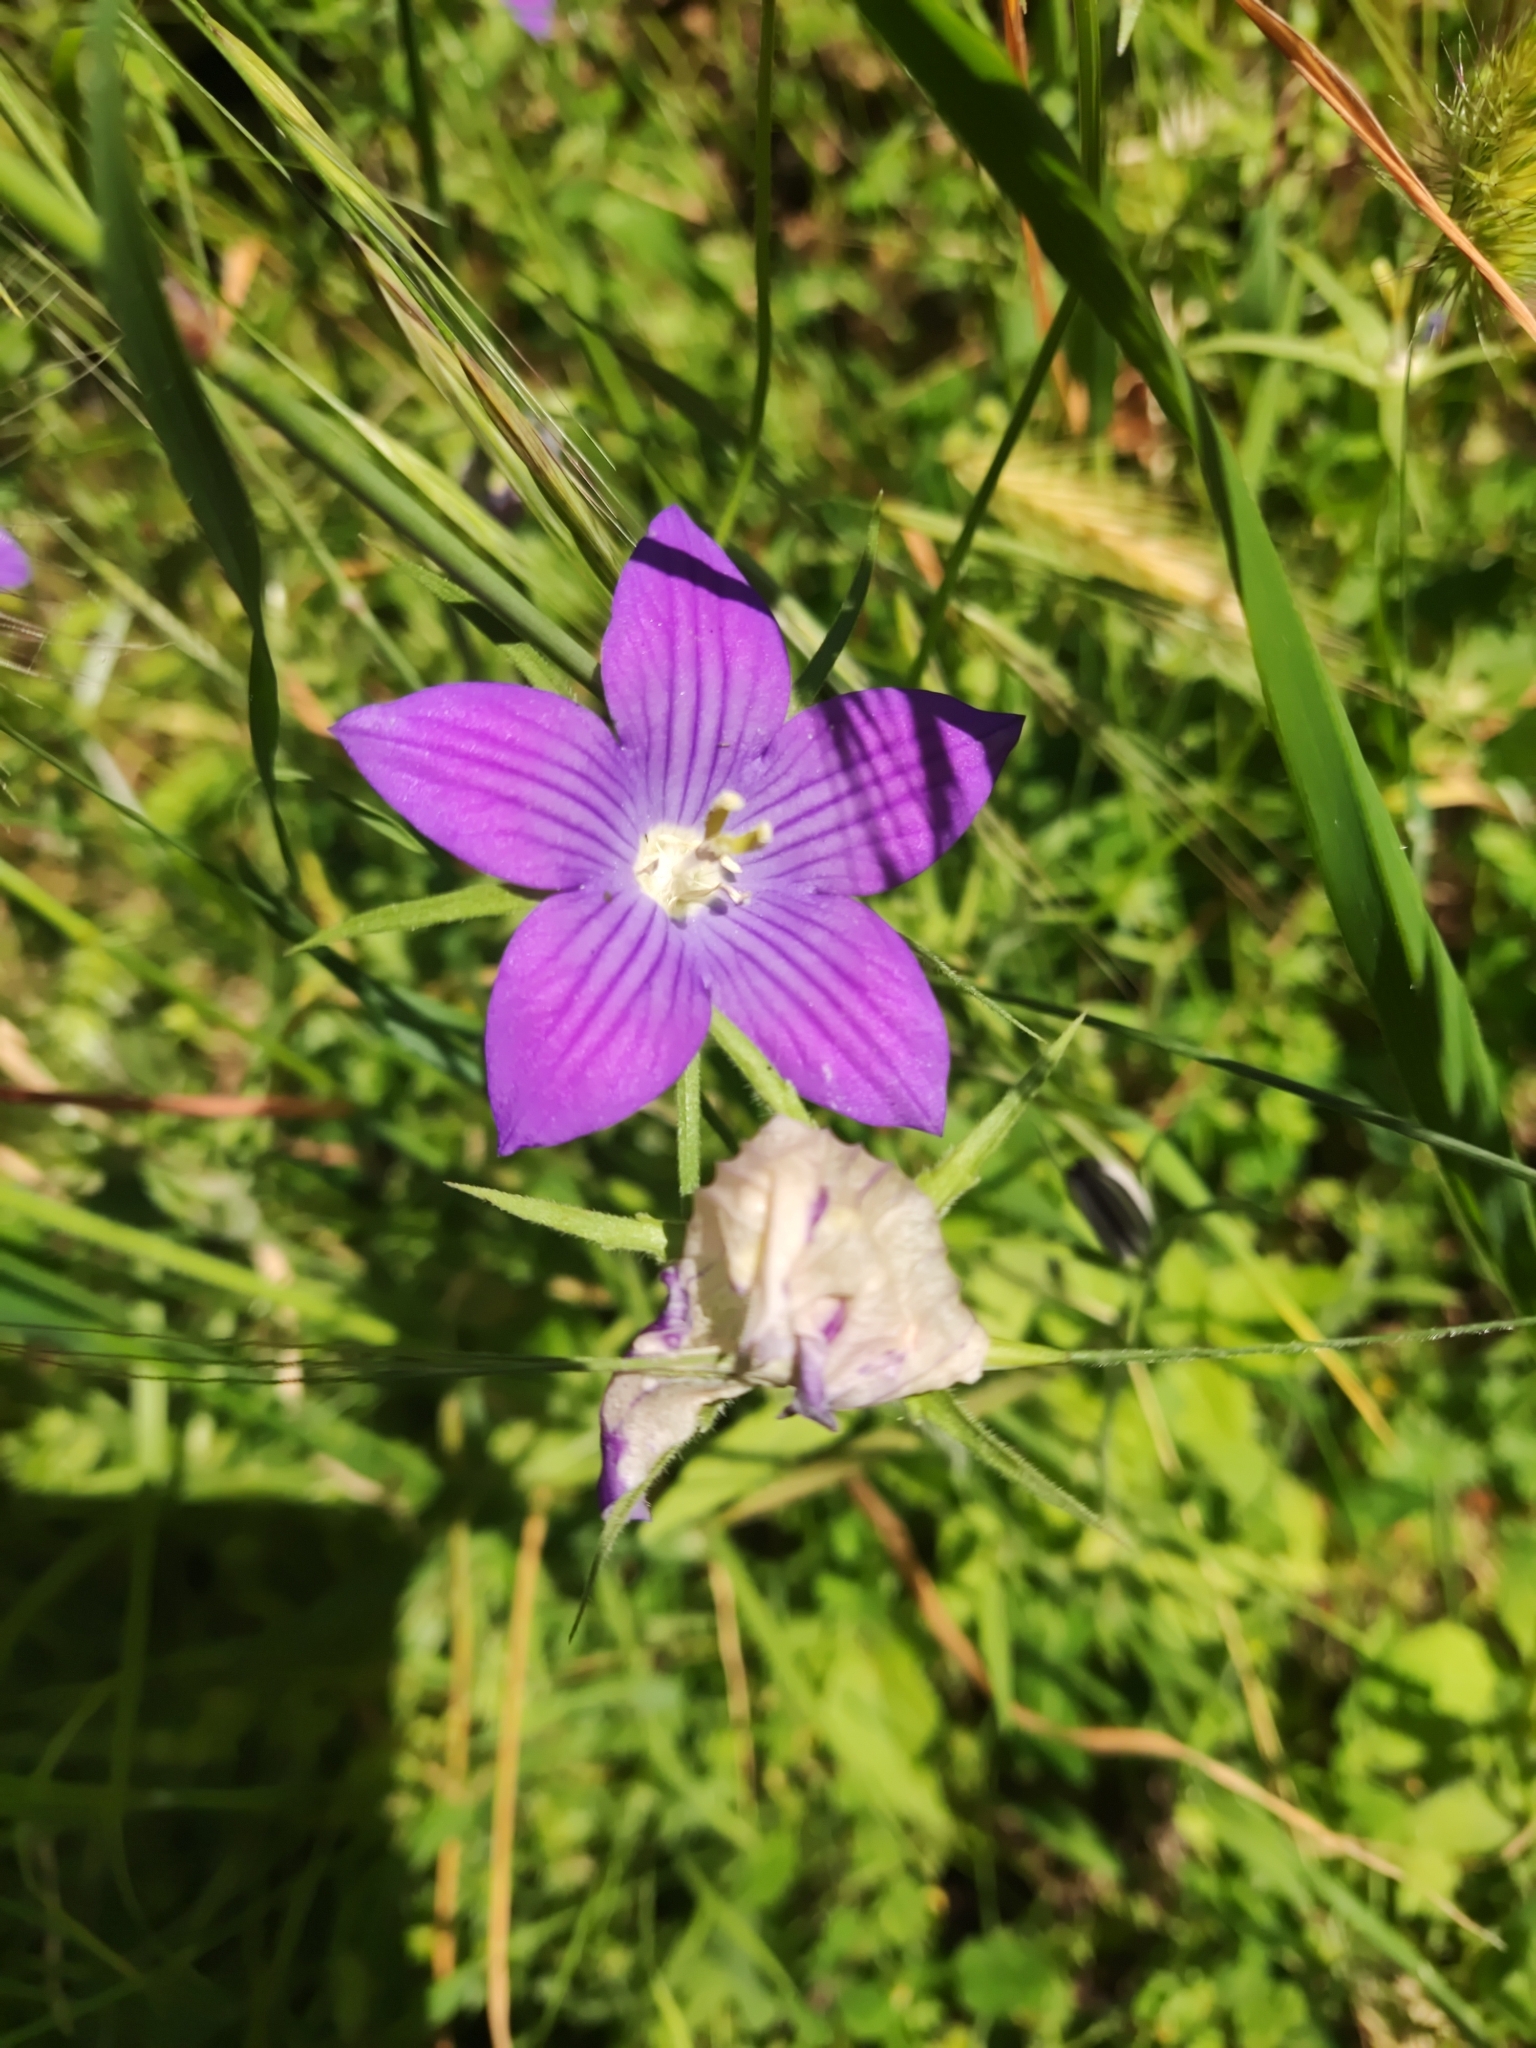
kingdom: Plantae
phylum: Tracheophyta
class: Magnoliopsida
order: Asterales
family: Campanulaceae
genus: Campanula
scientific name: Campanula patula
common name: Spreading bellflower
